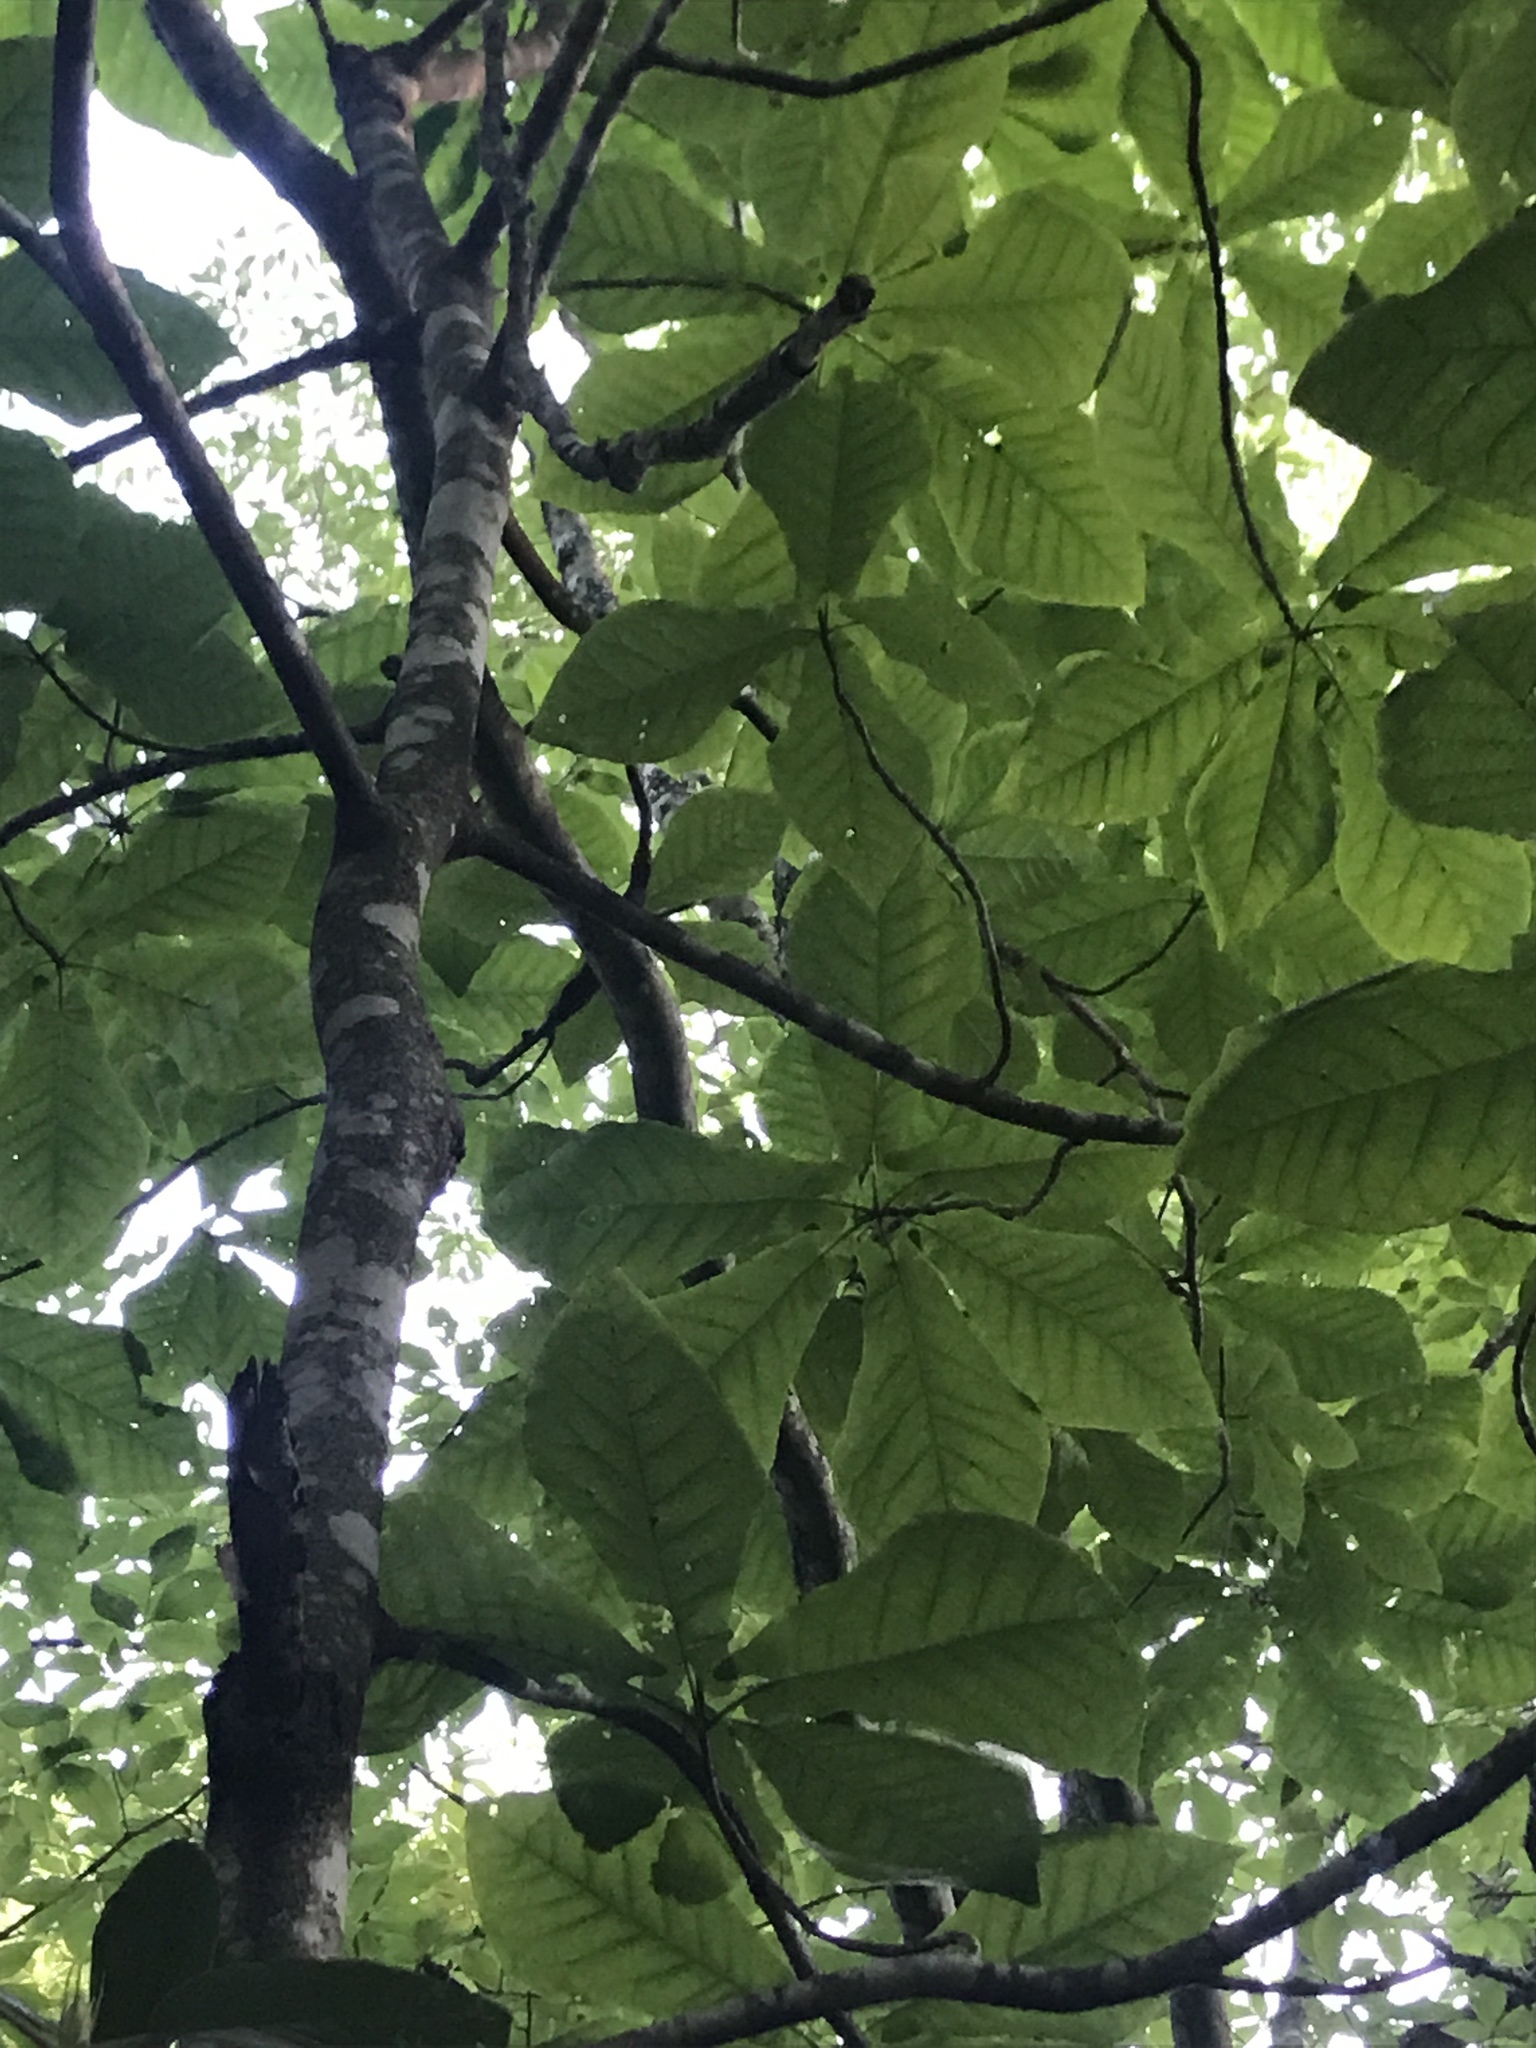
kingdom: Plantae
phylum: Tracheophyta
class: Magnoliopsida
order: Magnoliales
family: Magnoliaceae
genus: Magnolia
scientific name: Magnolia fraseri
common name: Fraser's magnolia
